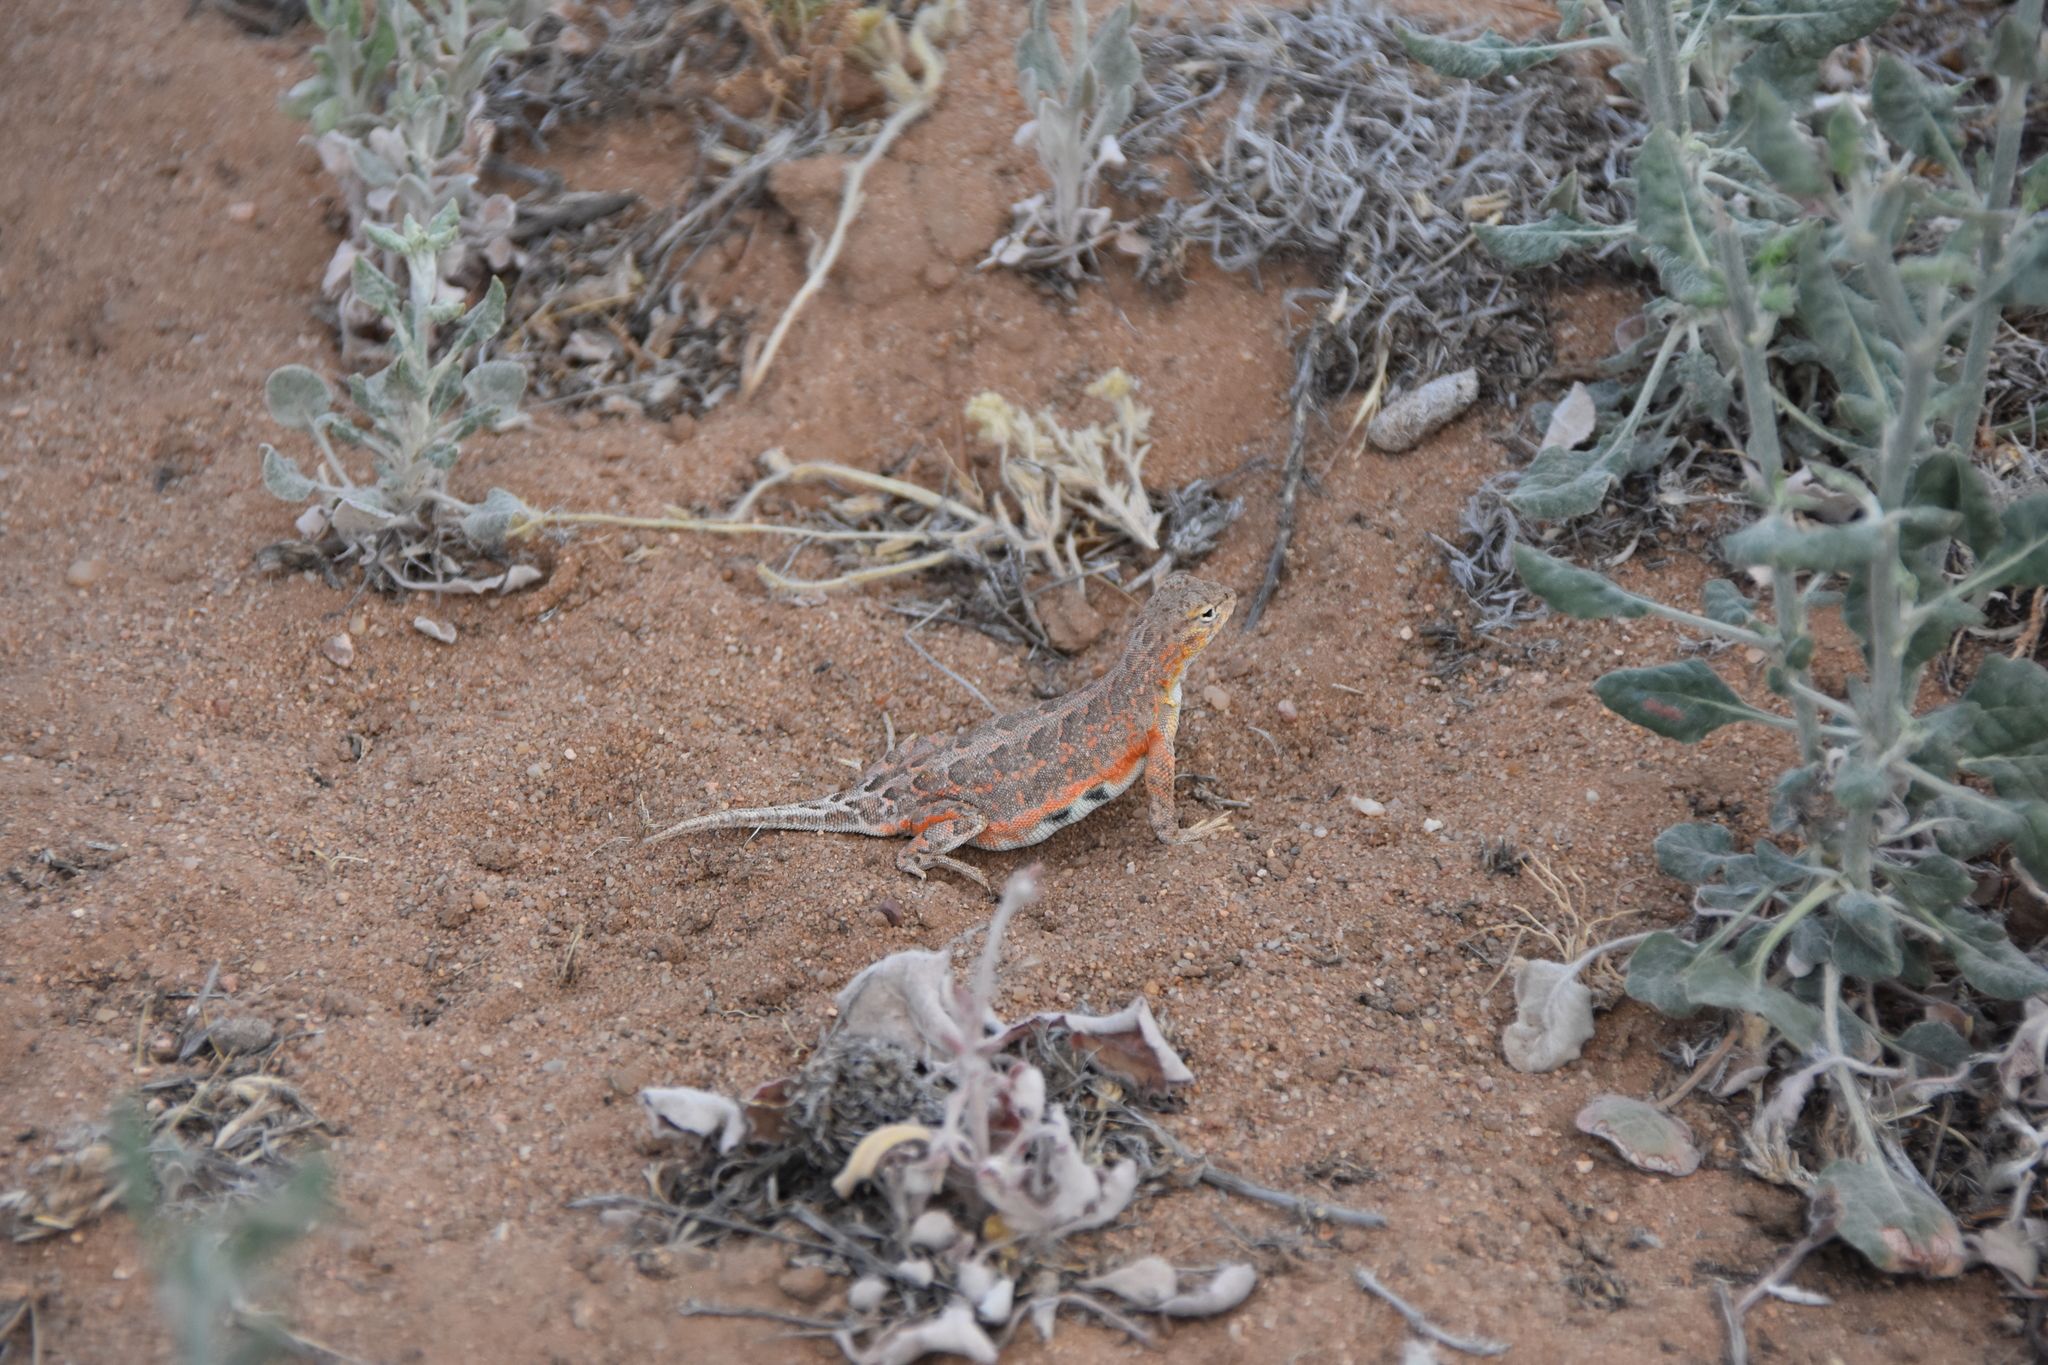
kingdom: Animalia
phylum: Chordata
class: Squamata
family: Phrynosomatidae
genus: Holbrookia
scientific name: Holbrookia maculata
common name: Lesser earless lizard
